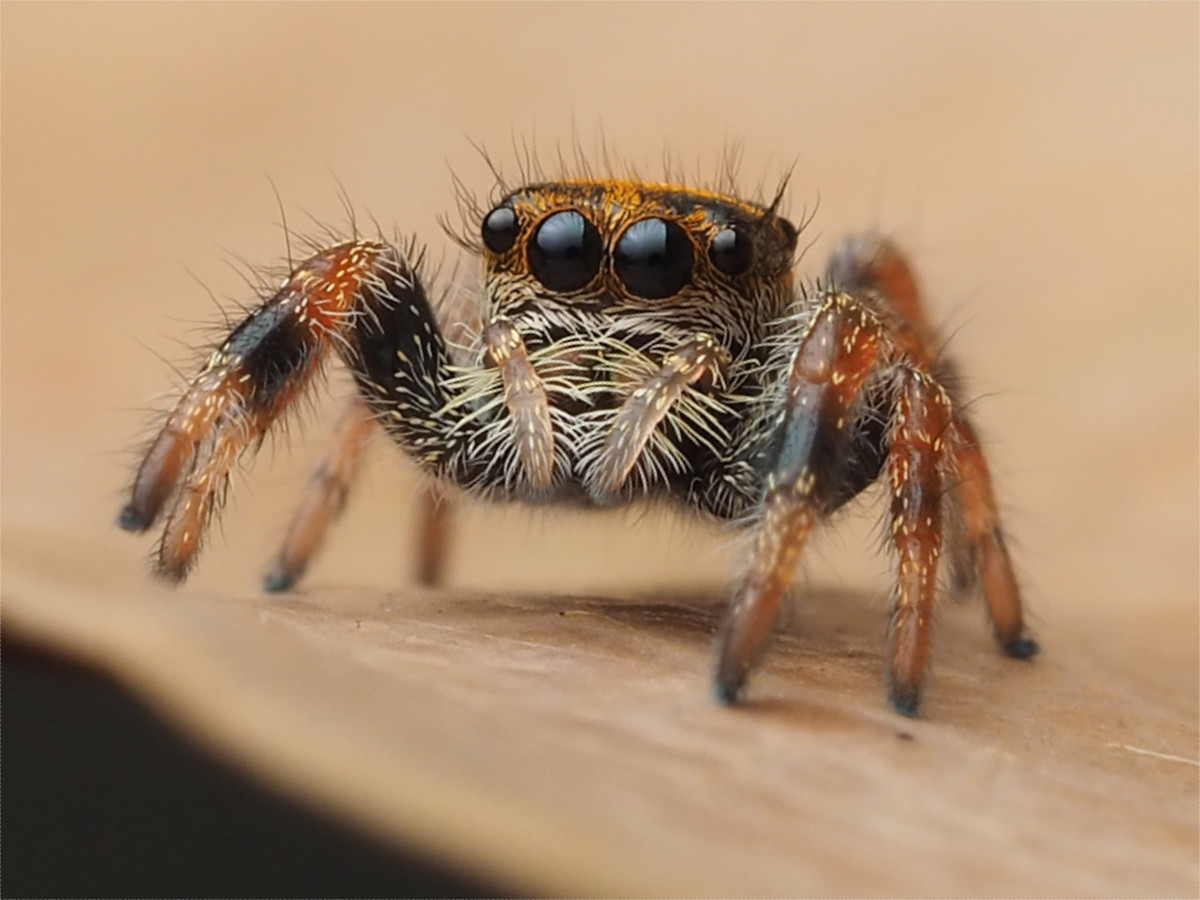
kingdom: Animalia
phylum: Arthropoda
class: Arachnida
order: Araneae
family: Salticidae
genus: Phidippus
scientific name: Phidippus regius
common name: Regal jumper
